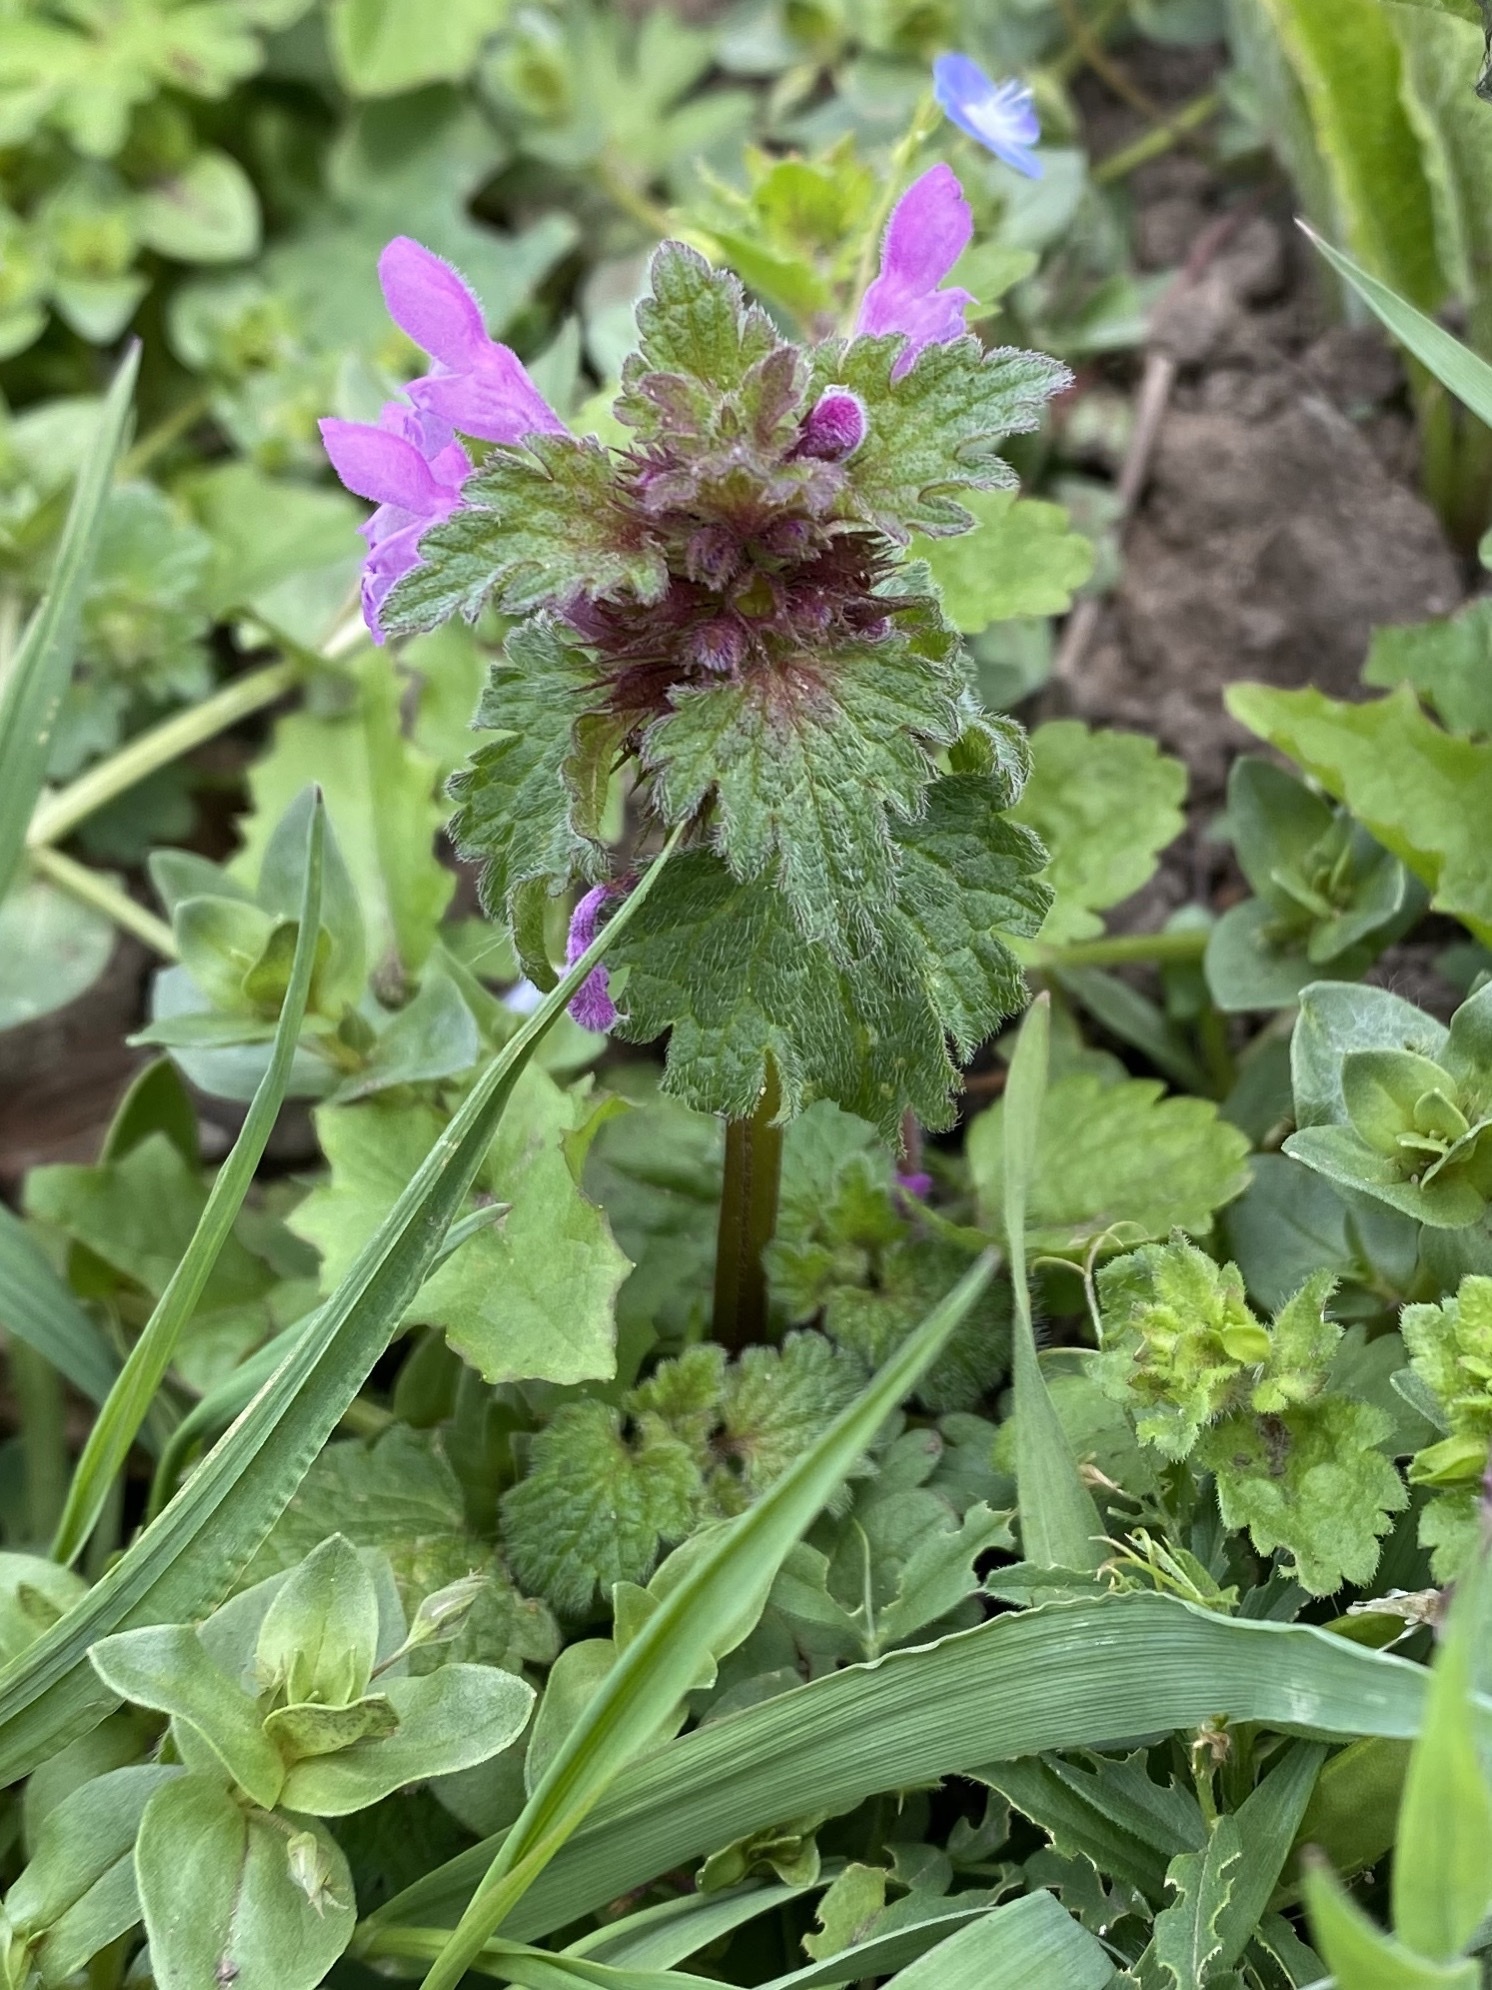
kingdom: Plantae
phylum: Tracheophyta
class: Magnoliopsida
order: Lamiales
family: Lamiaceae
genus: Lamium
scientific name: Lamium purpureum
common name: Red dead-nettle
